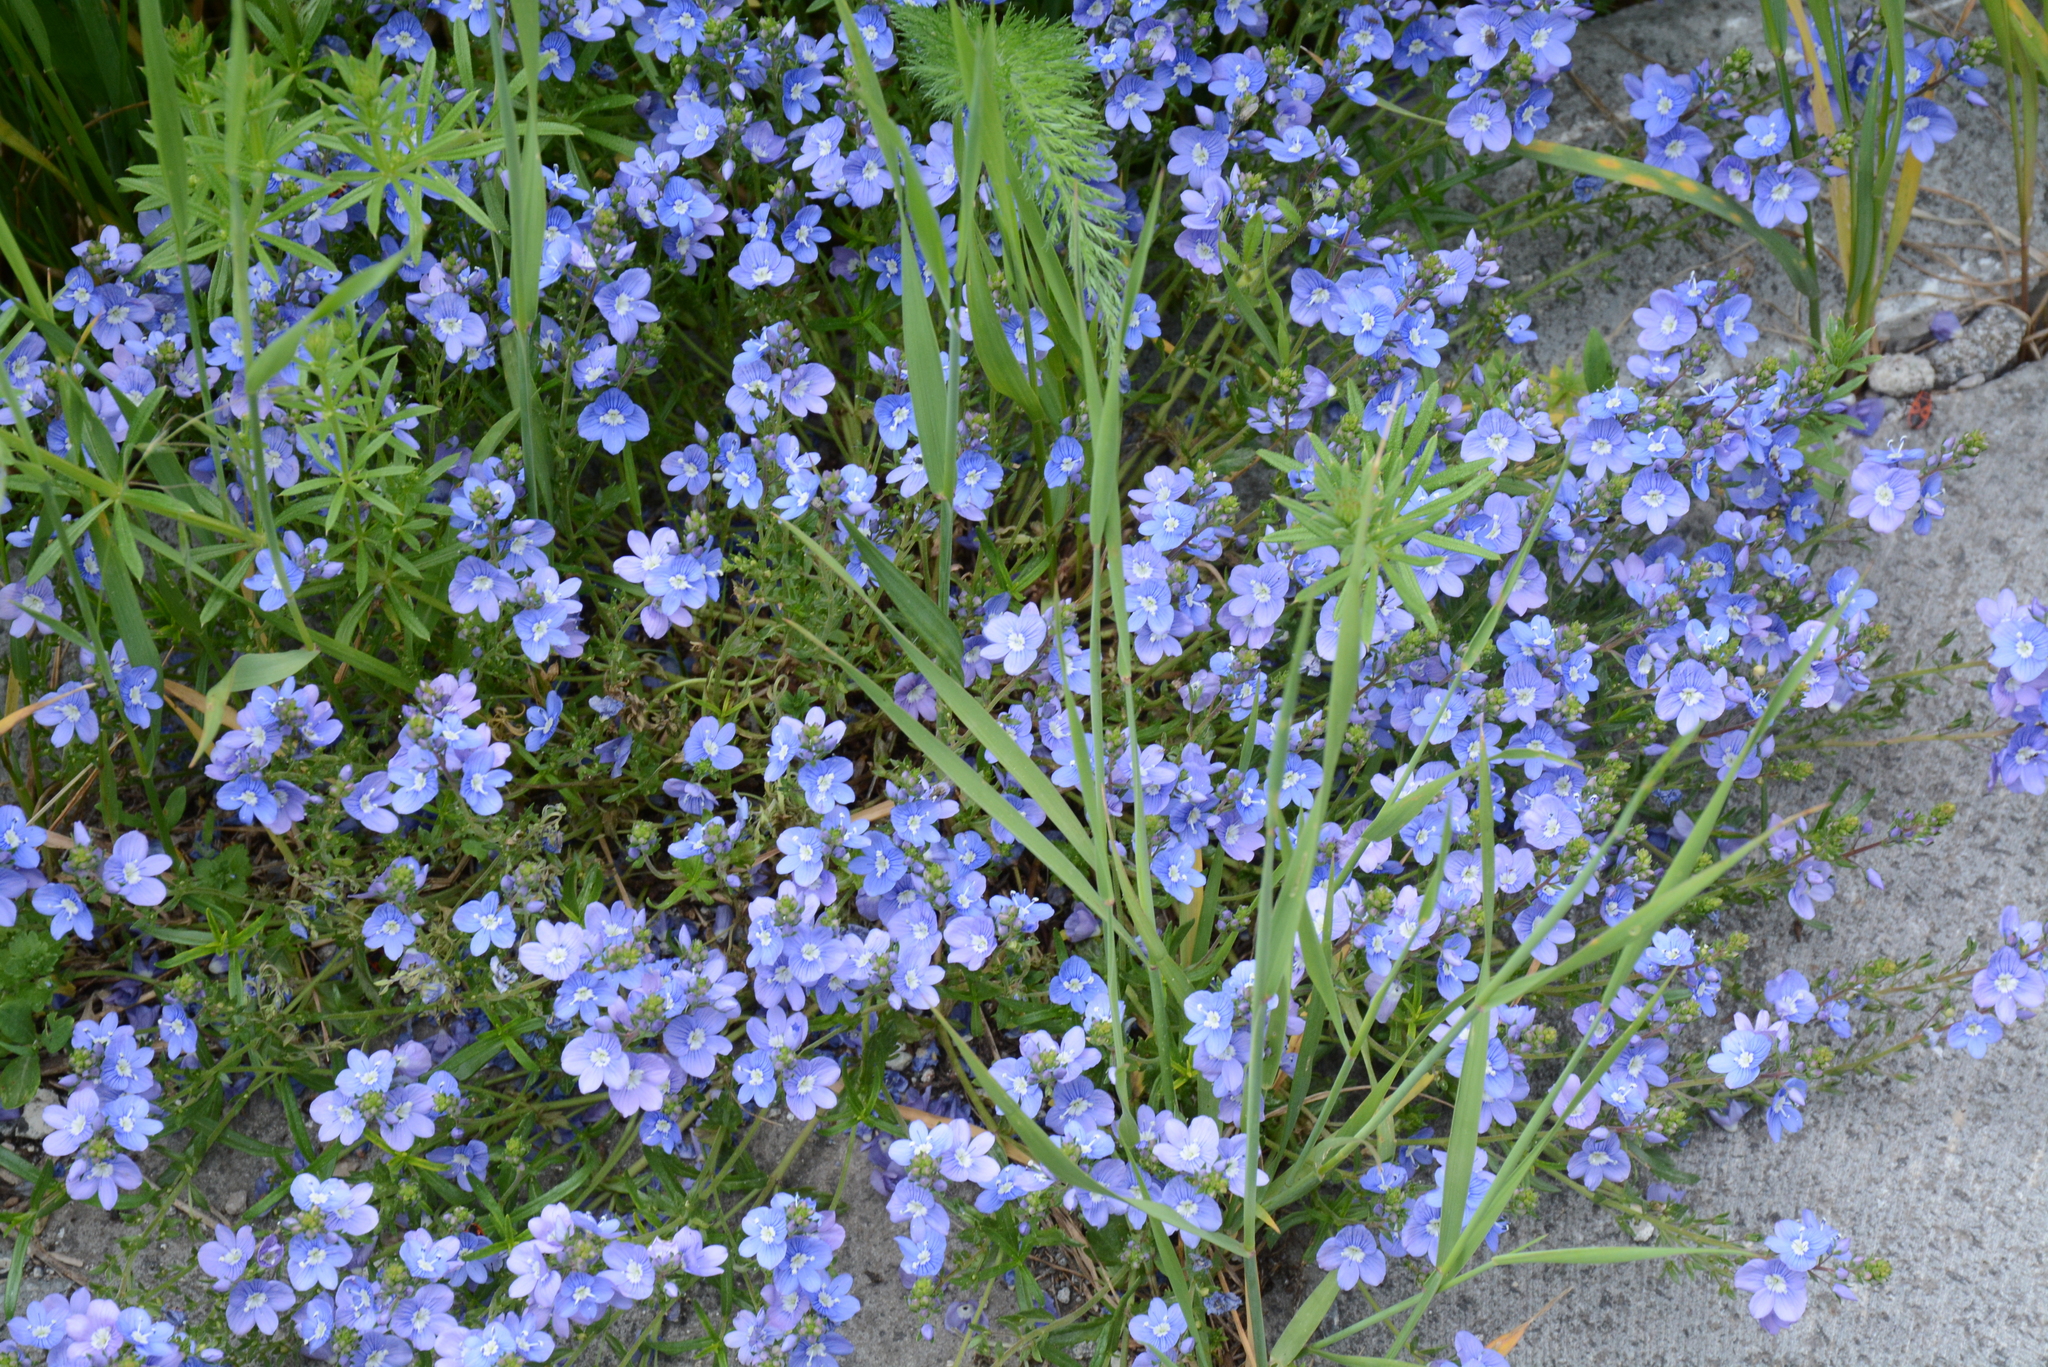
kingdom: Plantae
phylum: Tracheophyta
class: Magnoliopsida
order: Lamiales
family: Plantaginaceae
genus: Veronica
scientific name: Veronica orientalis
